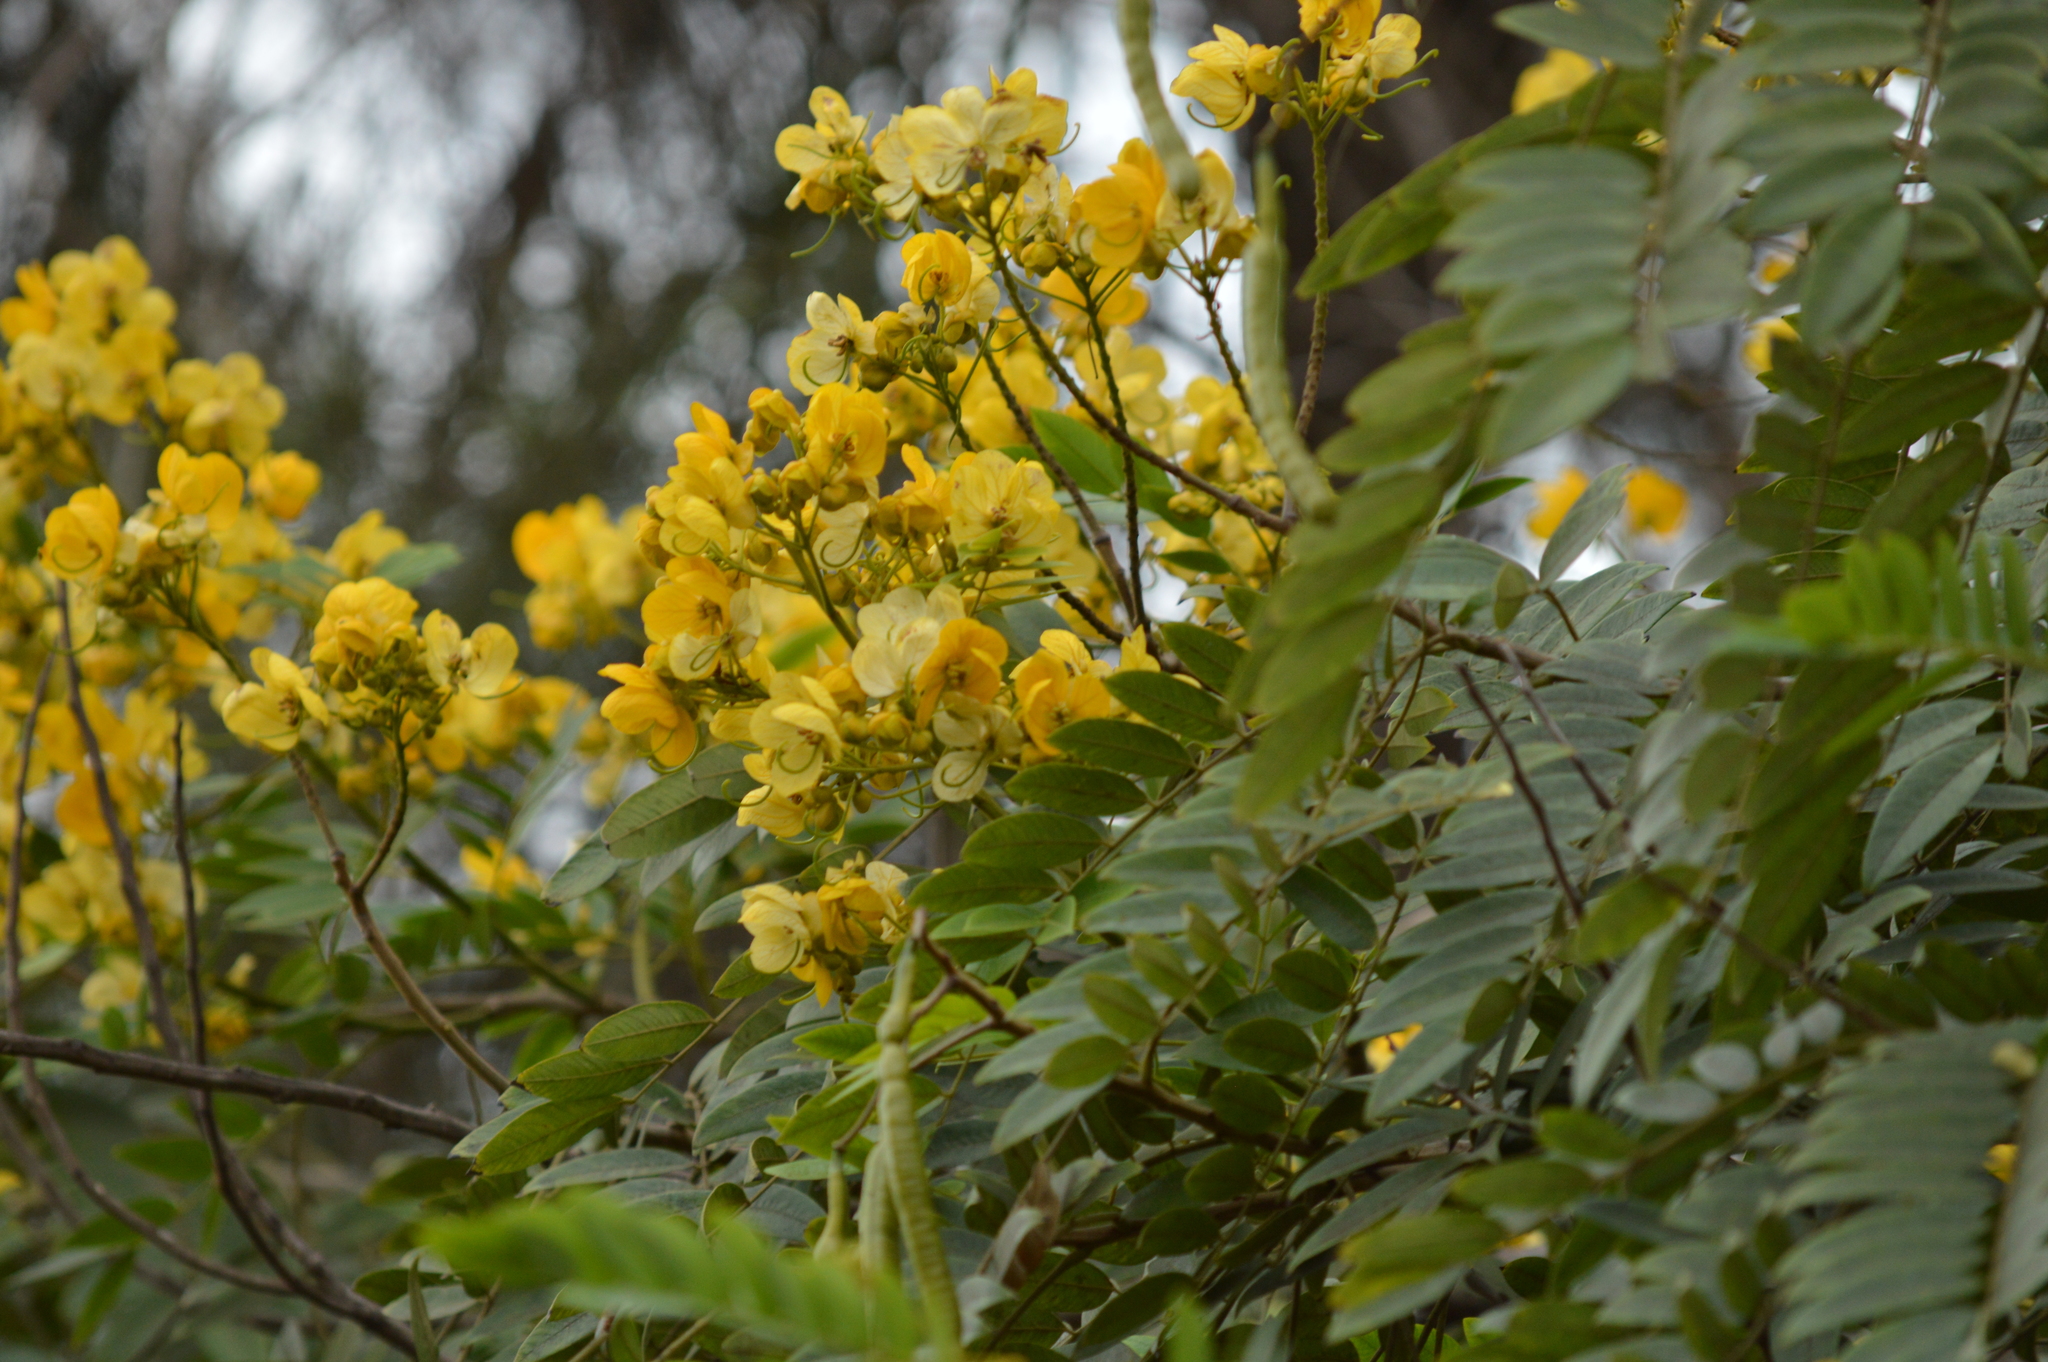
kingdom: Plantae
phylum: Tracheophyta
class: Magnoliopsida
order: Fabales
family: Fabaceae
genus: Senna
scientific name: Senna spectabilis
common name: Casia amarilla
